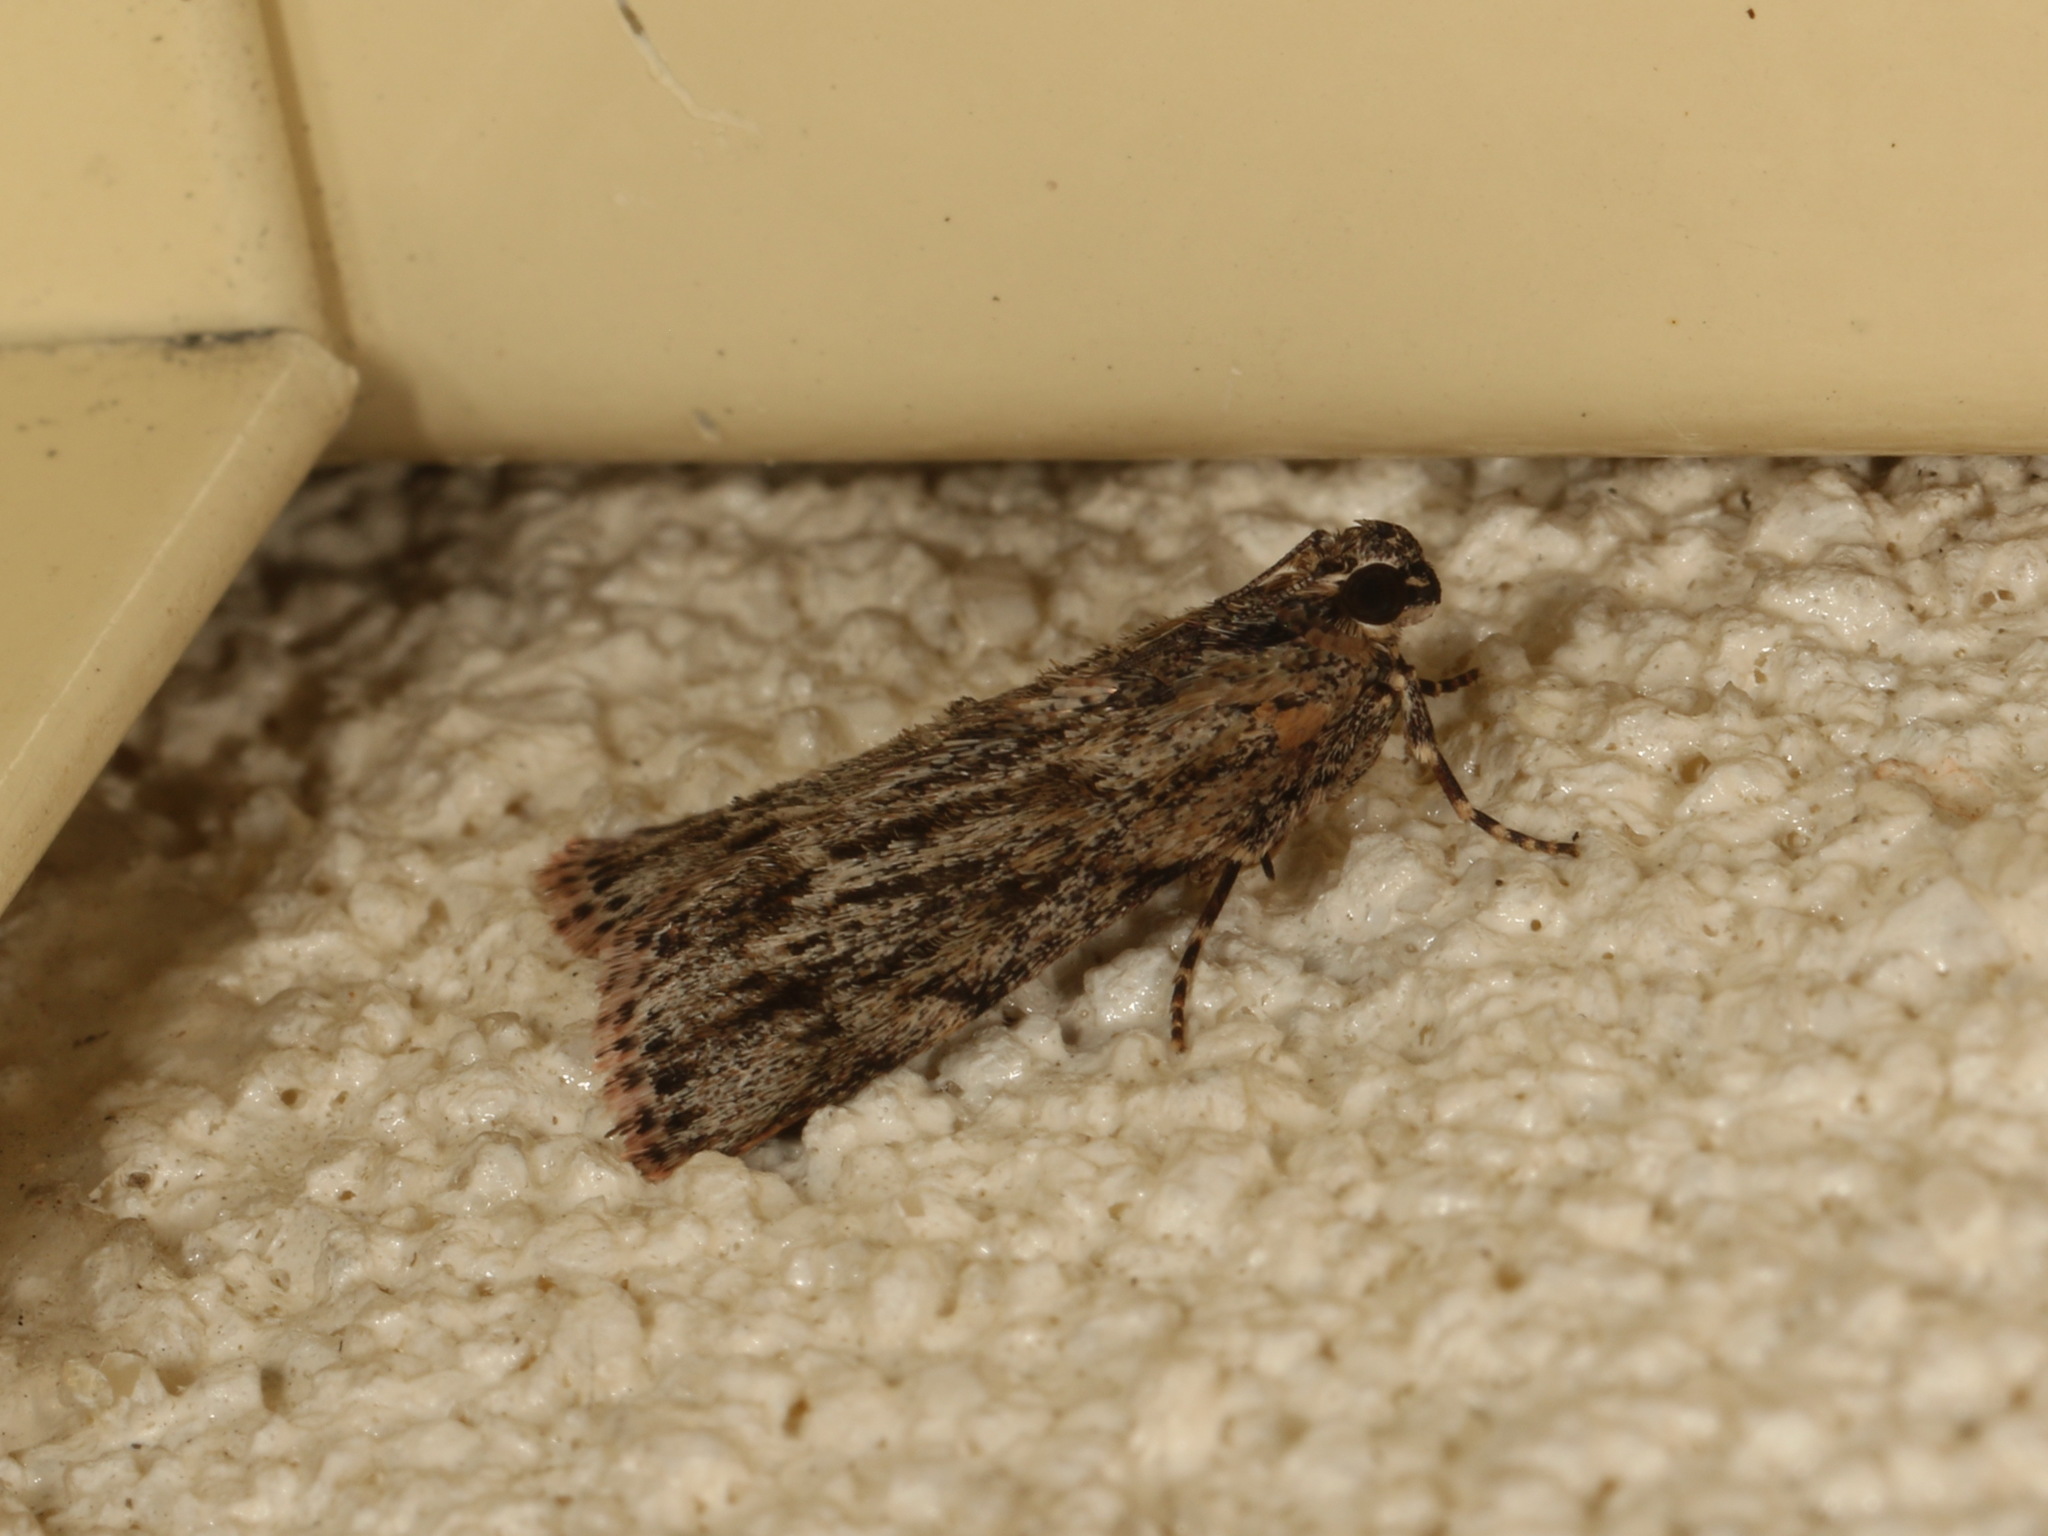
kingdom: Animalia
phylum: Arthropoda
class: Insecta
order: Lepidoptera
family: Pyralidae
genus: Spectrotrota
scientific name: Spectrotrota fimbrialis
